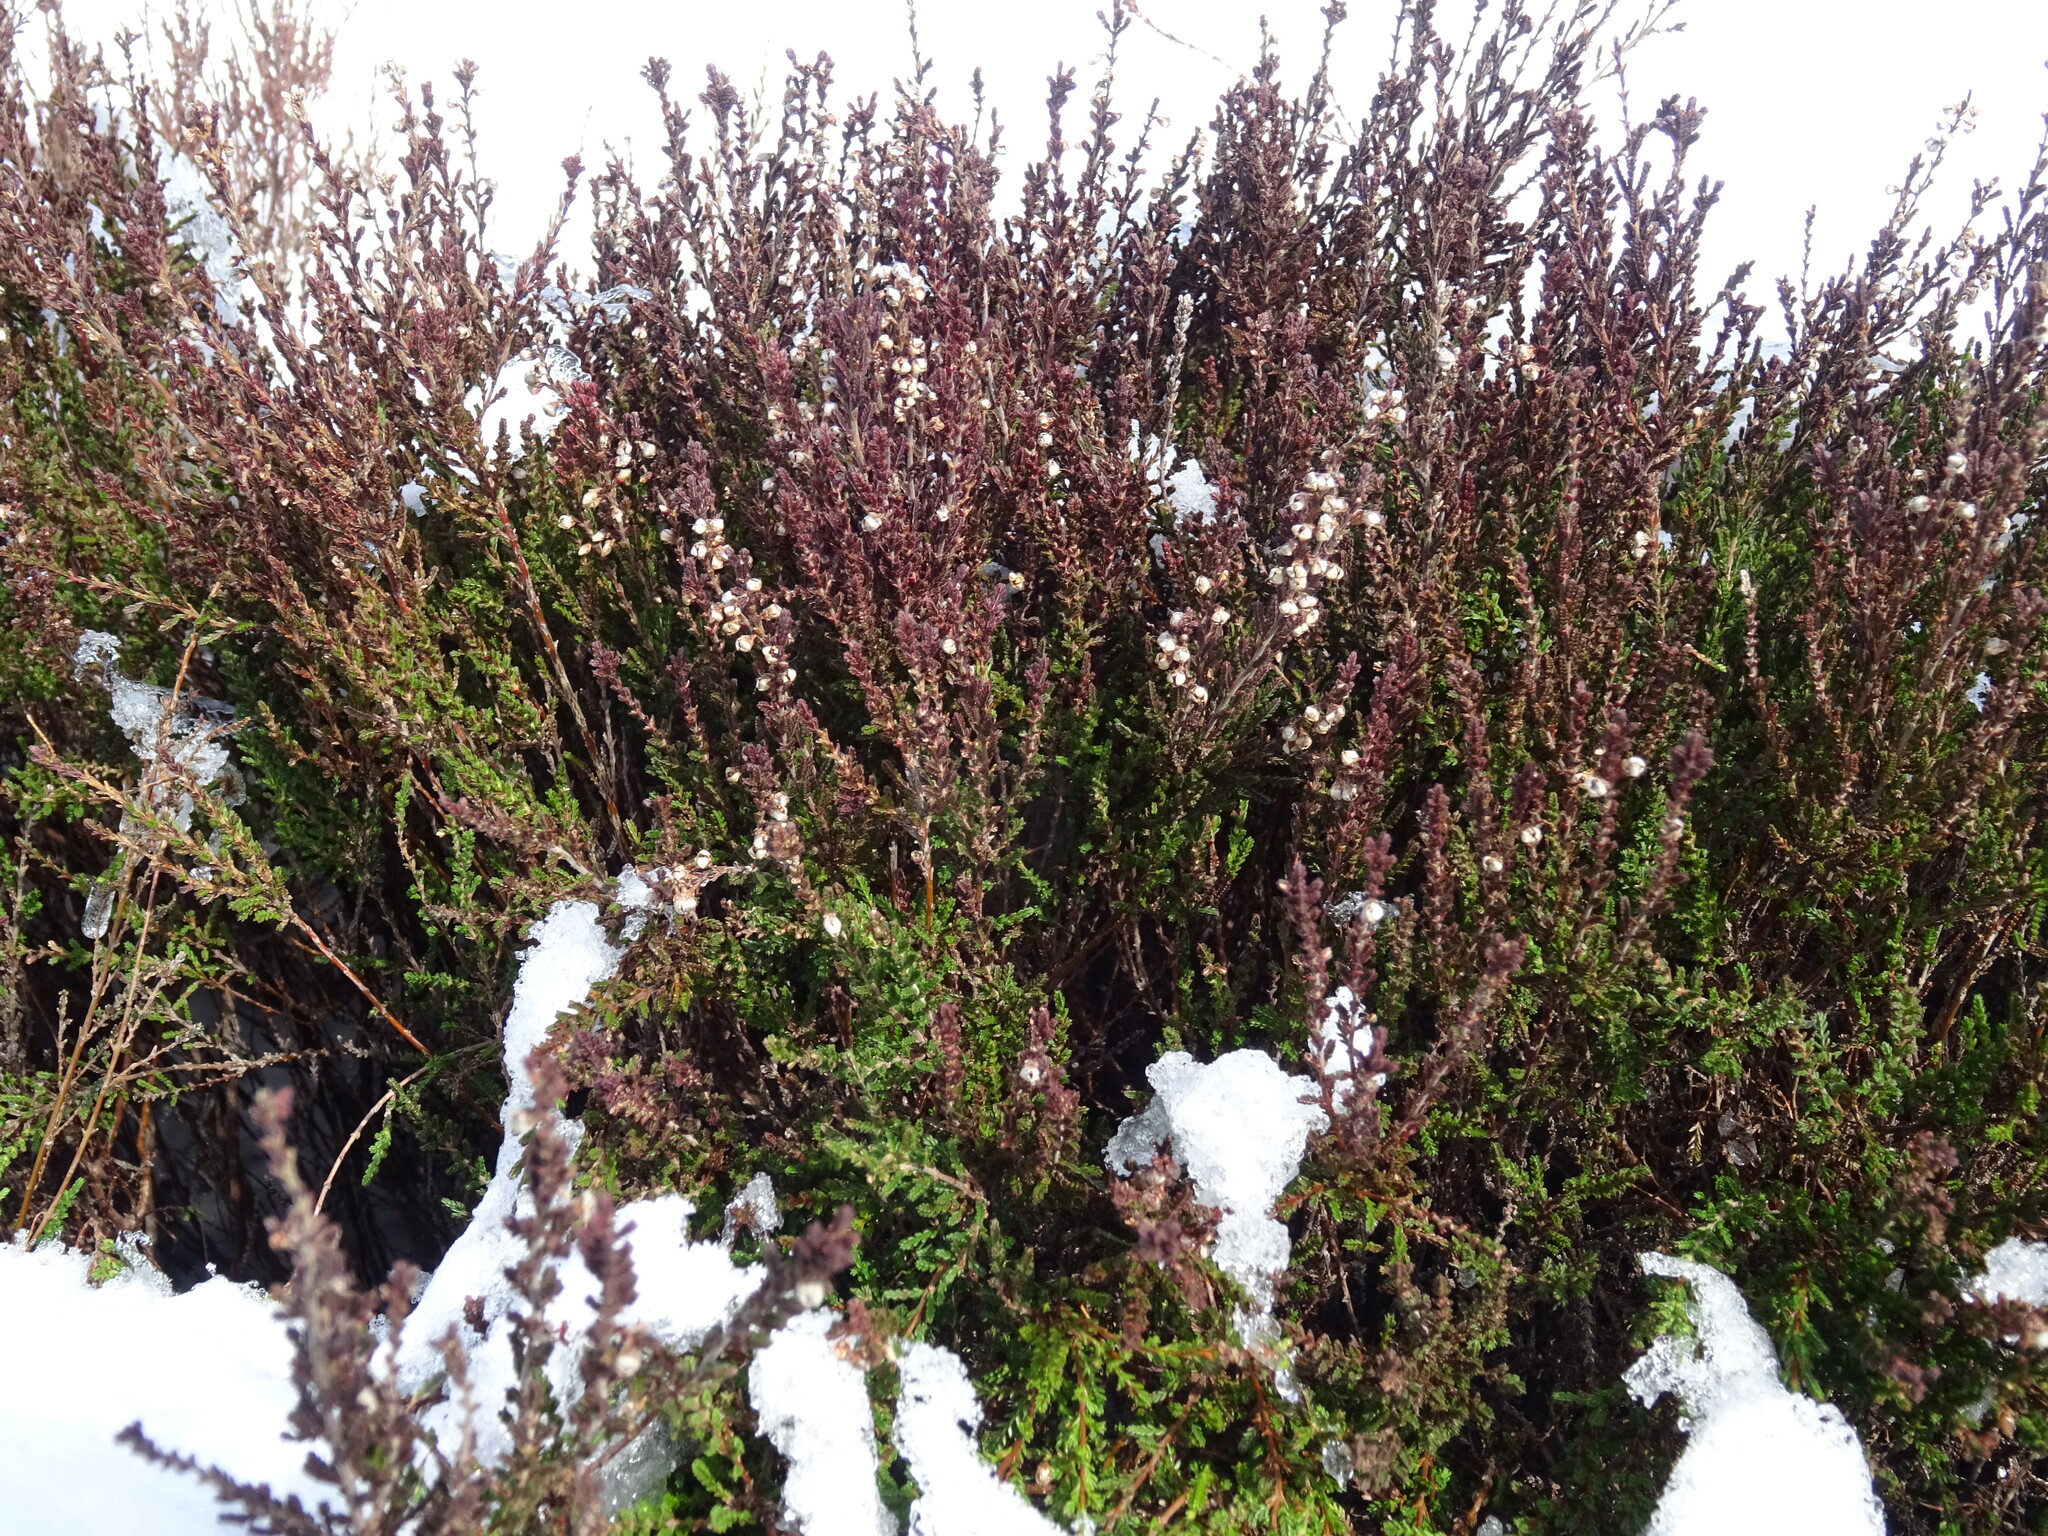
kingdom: Plantae
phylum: Tracheophyta
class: Magnoliopsida
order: Ericales
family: Ericaceae
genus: Calluna
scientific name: Calluna vulgaris
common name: Heather
